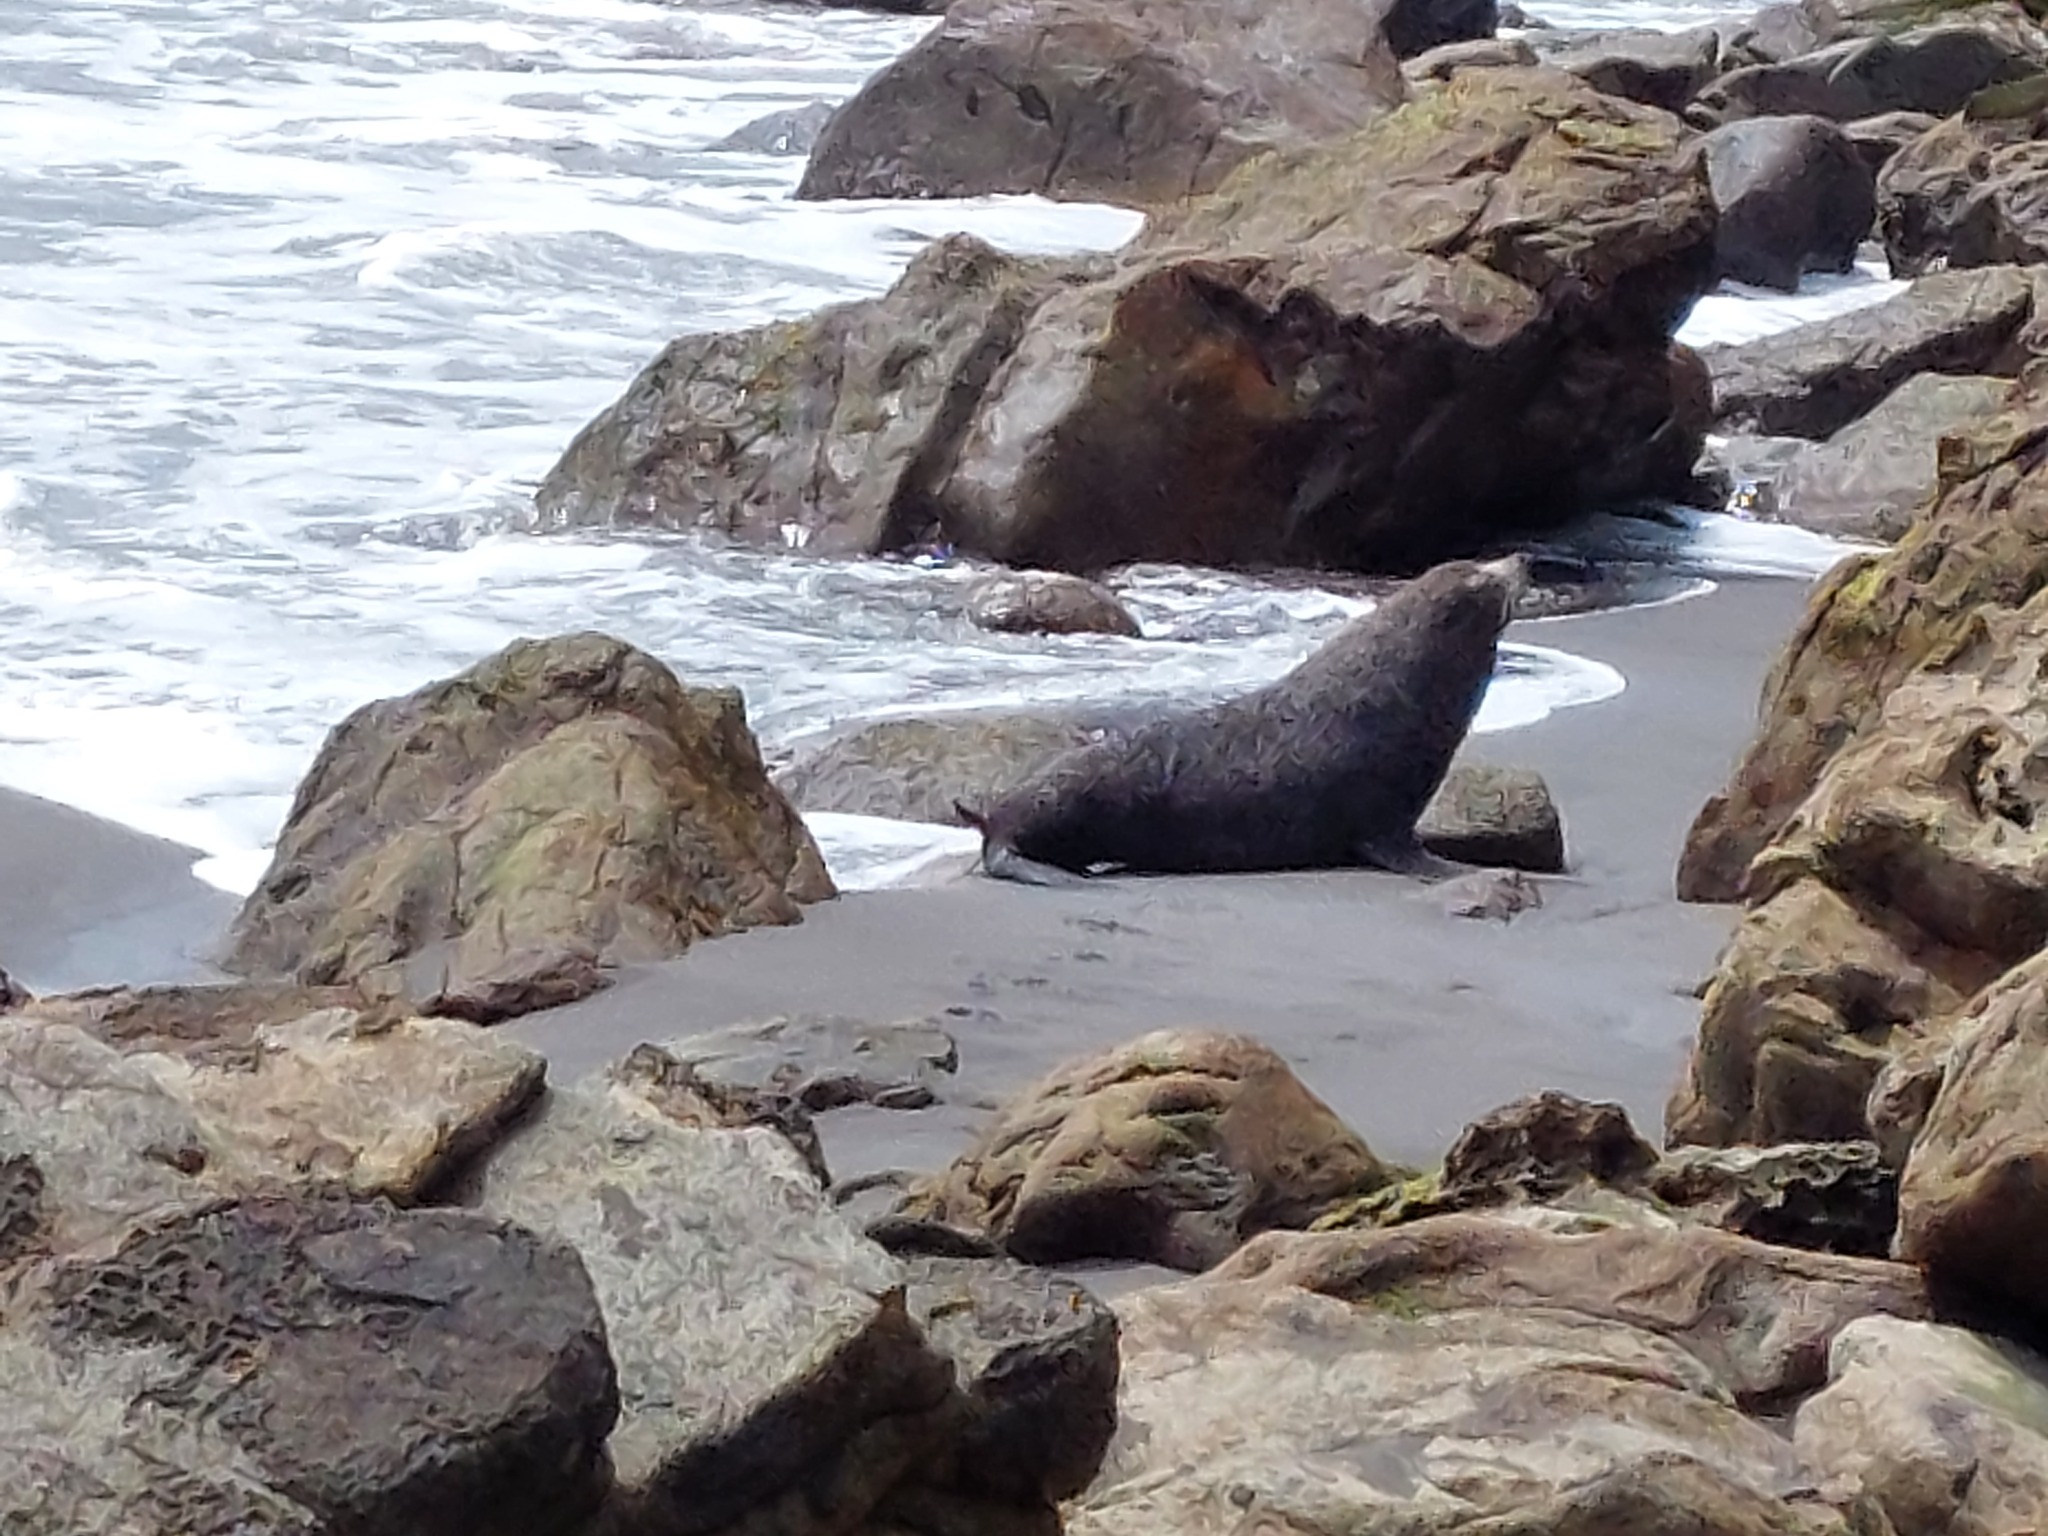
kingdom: Animalia
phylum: Chordata
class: Mammalia
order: Carnivora
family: Otariidae
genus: Arctocephalus
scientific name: Arctocephalus forsteri
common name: New zealand fur seal
